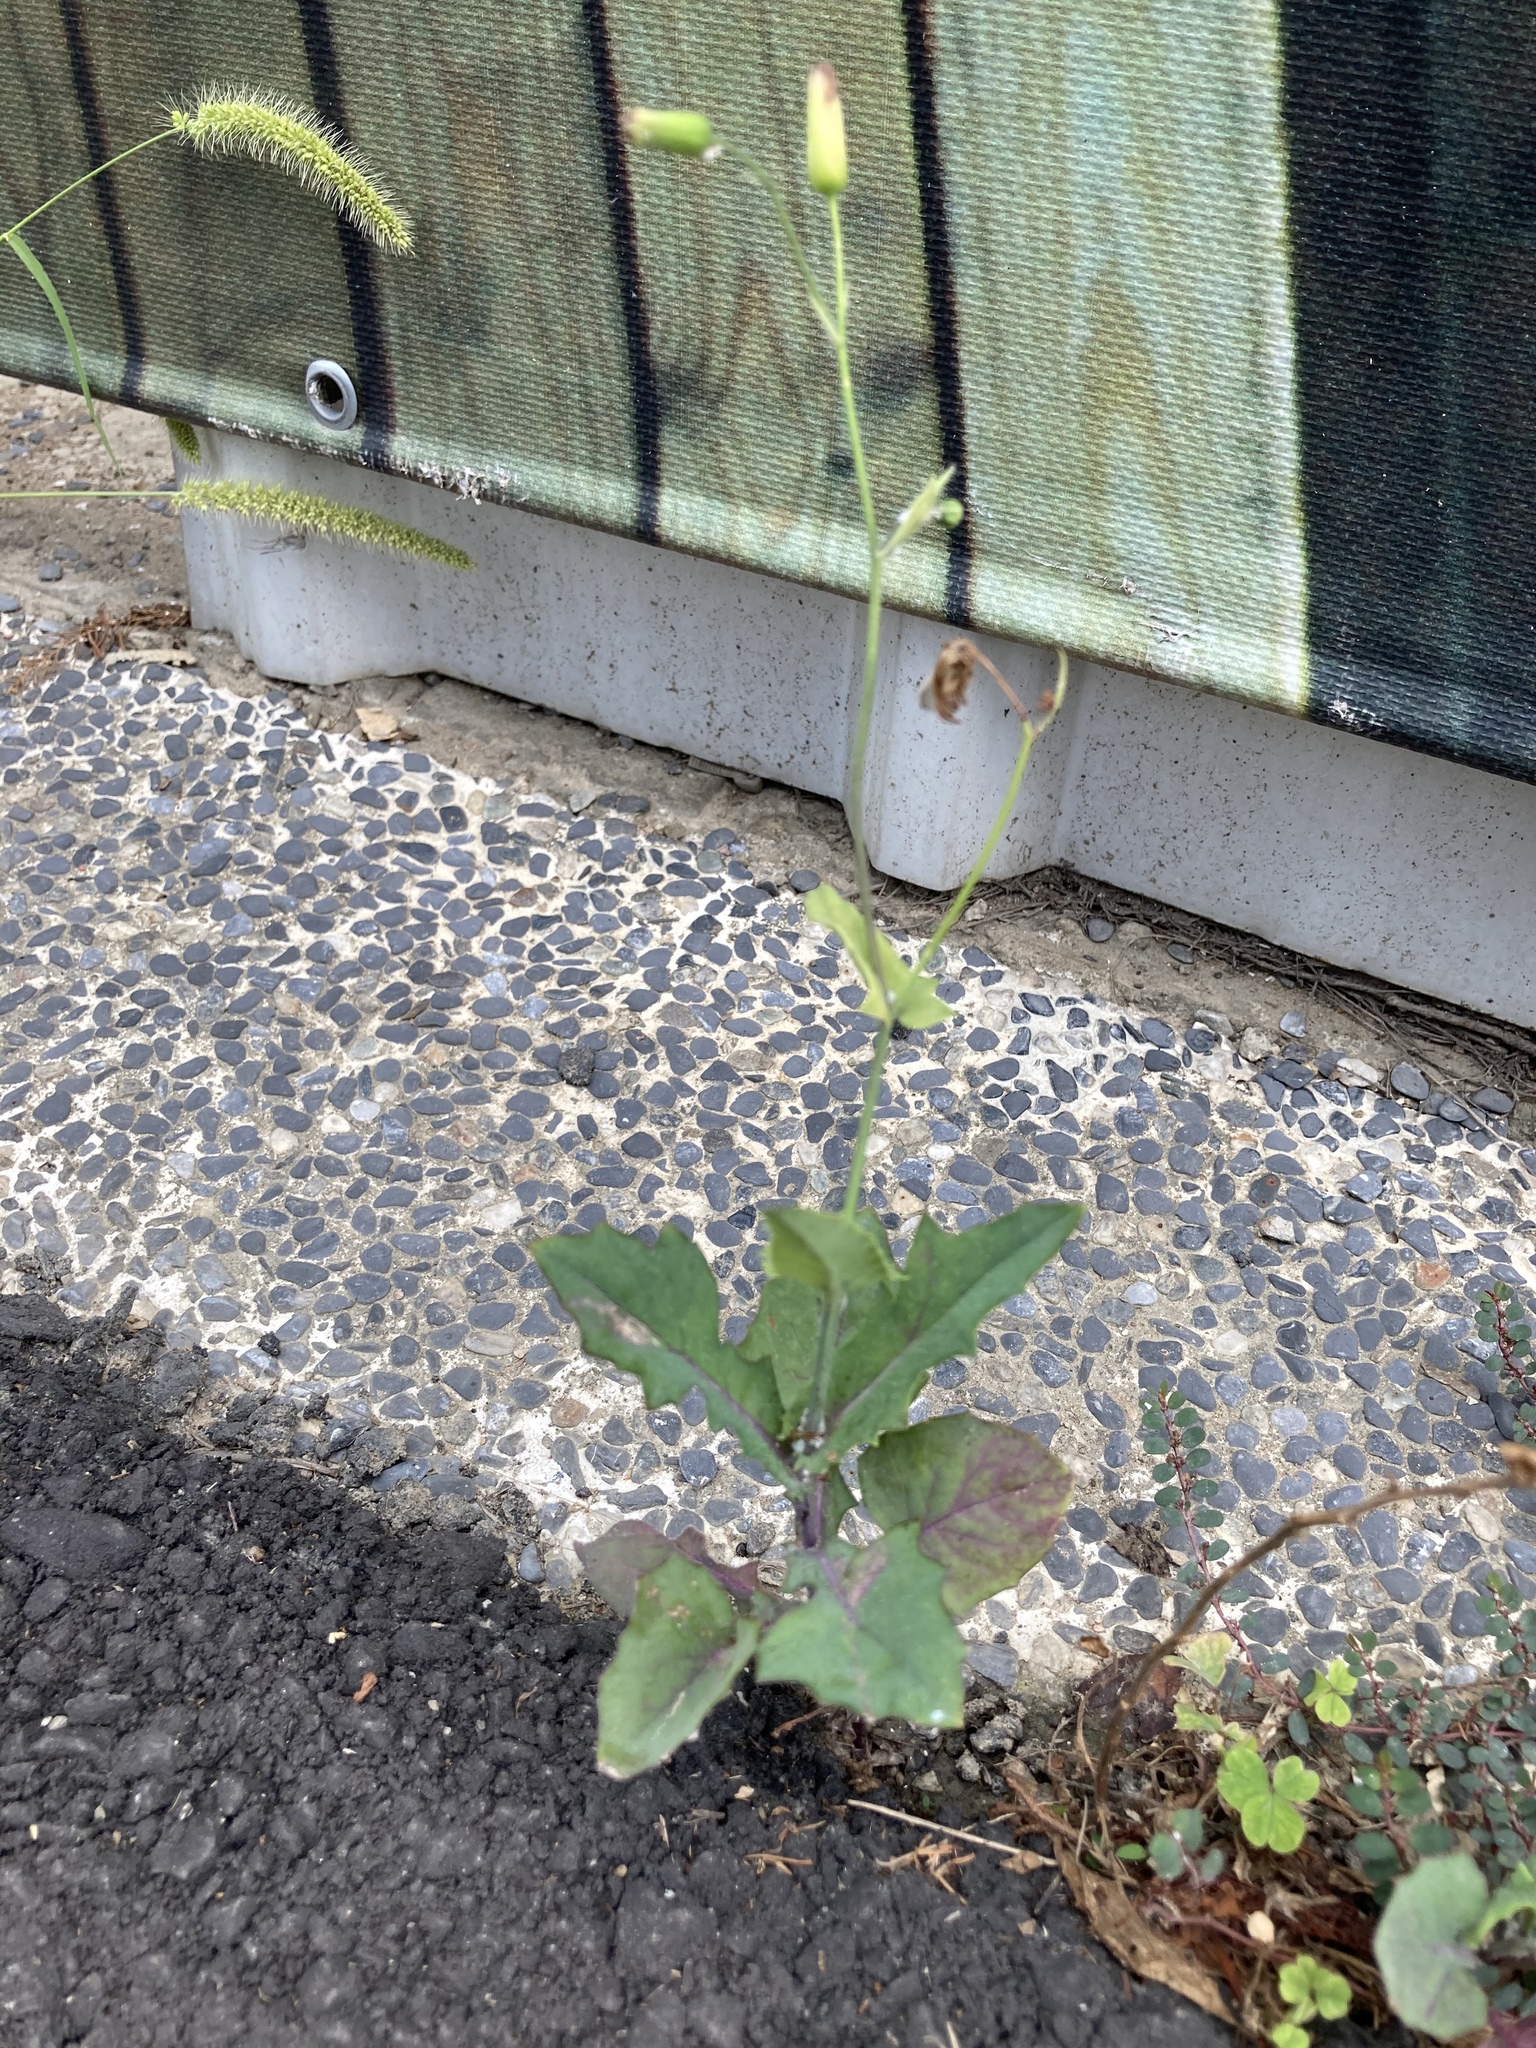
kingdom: Plantae
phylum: Tracheophyta
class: Magnoliopsida
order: Asterales
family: Asteraceae
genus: Emilia
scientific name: Emilia javanica
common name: Tassel-flower
